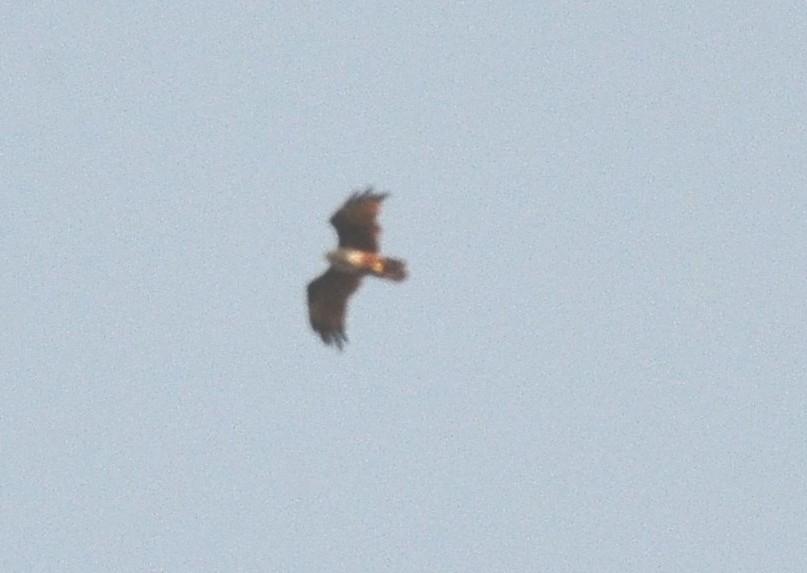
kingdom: Animalia
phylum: Chordata
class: Aves
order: Accipitriformes
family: Accipitridae
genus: Haliastur
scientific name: Haliastur indus
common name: Brahminy kite
